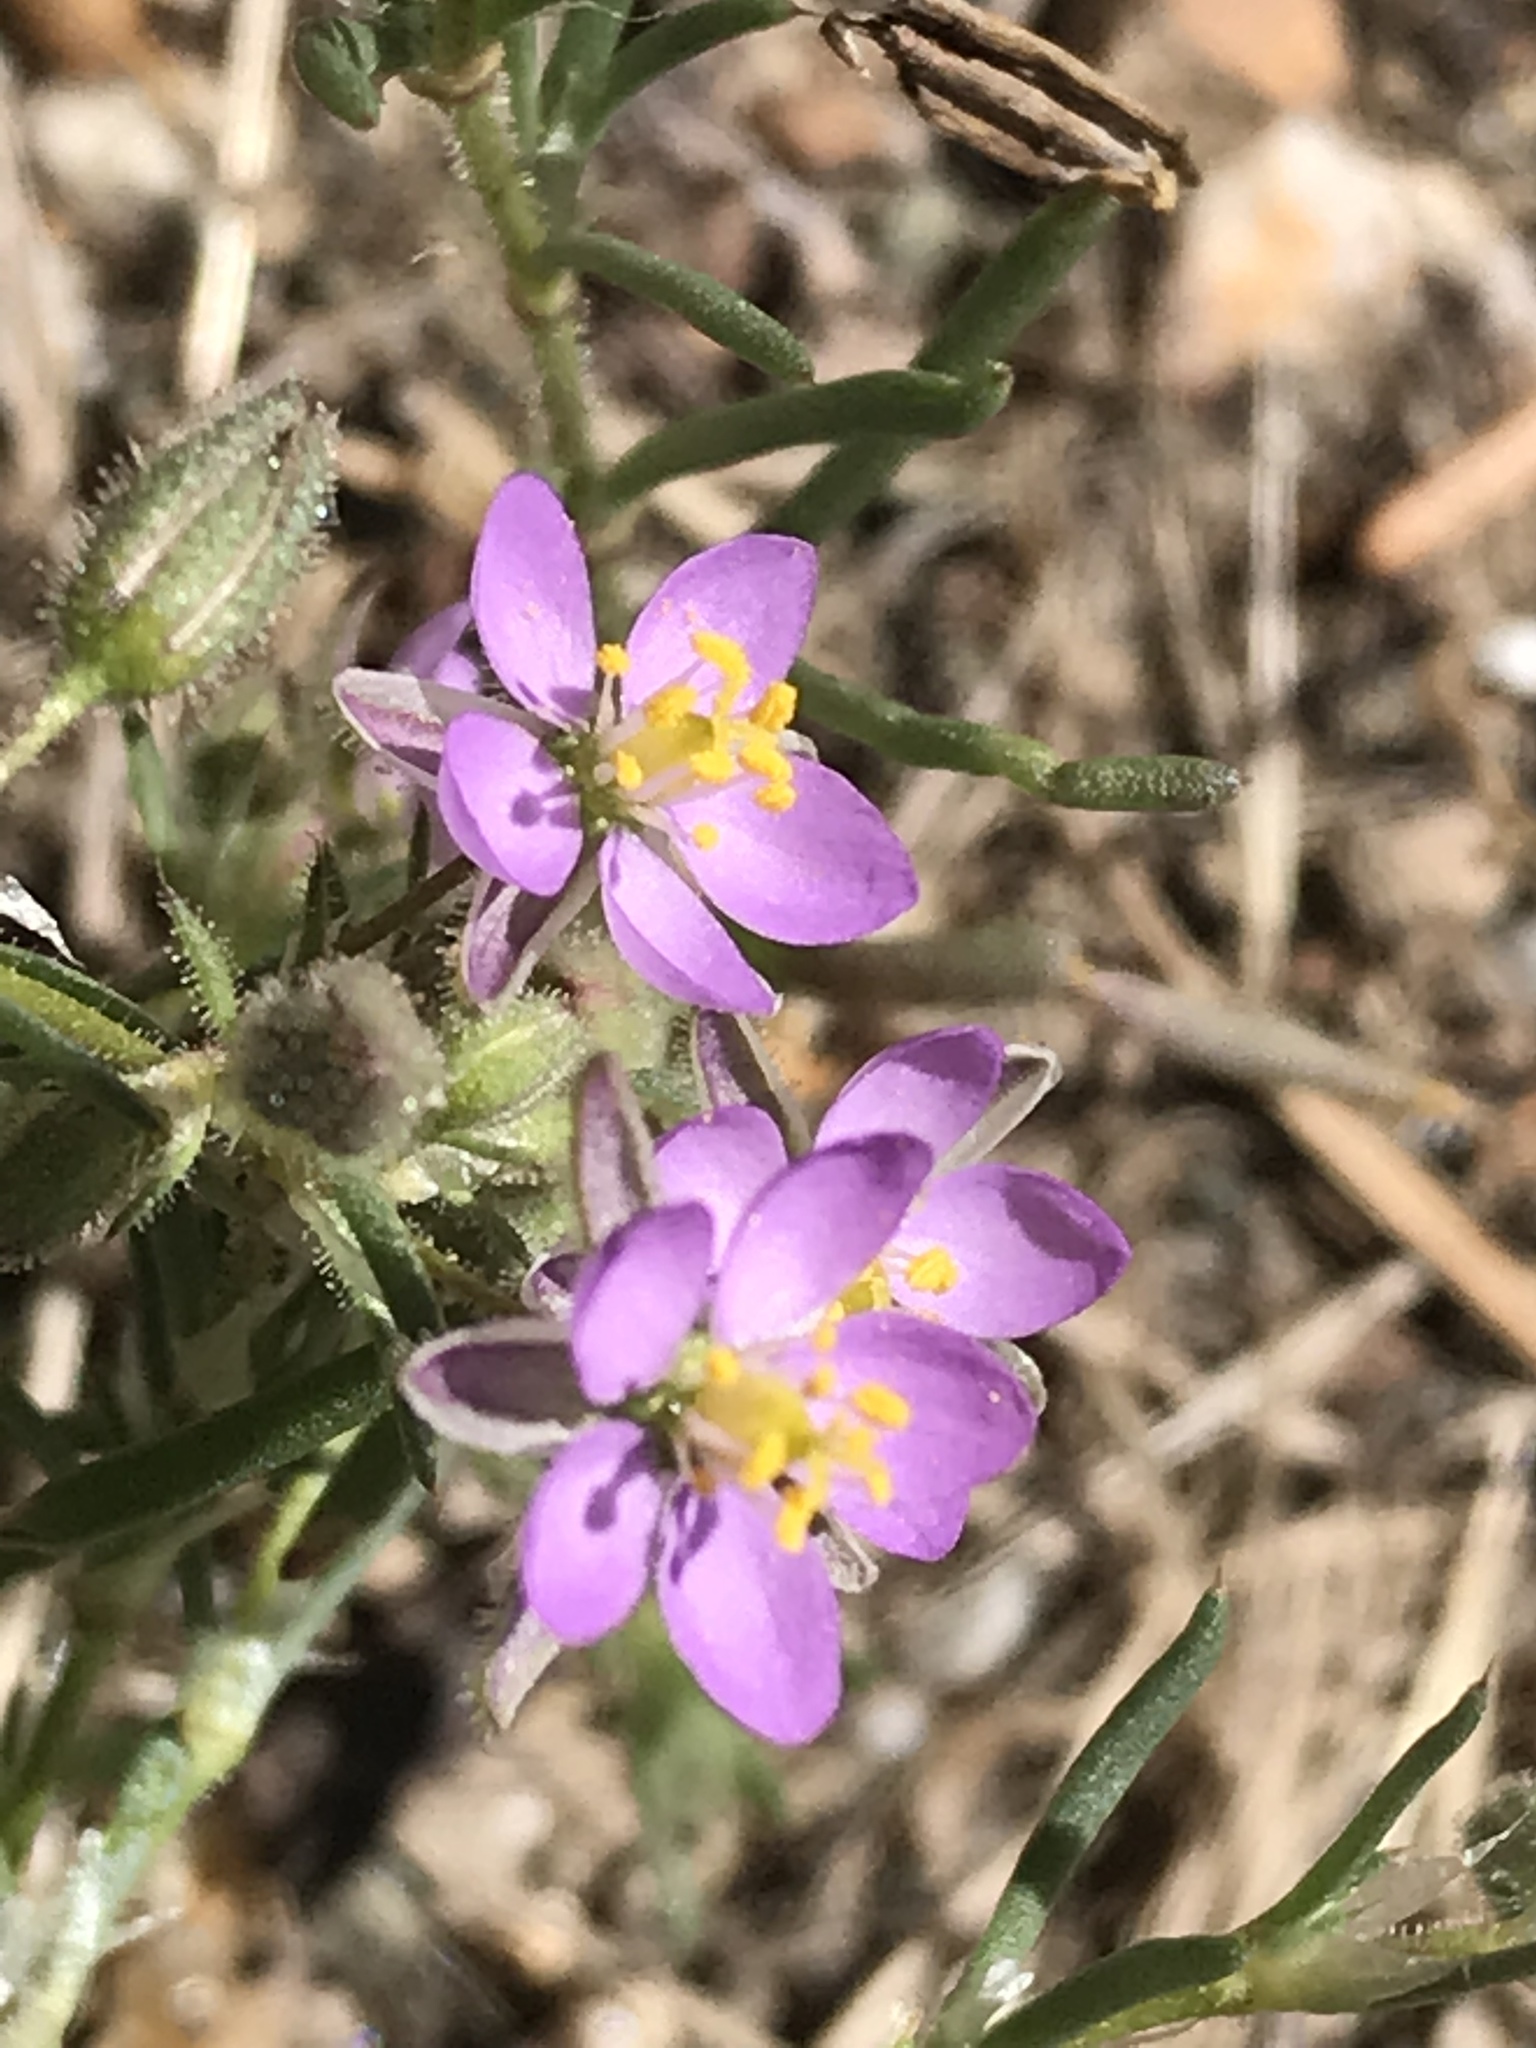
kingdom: Plantae
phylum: Tracheophyta
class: Magnoliopsida
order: Caryophyllales
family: Caryophyllaceae
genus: Spergularia
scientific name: Spergularia rubra
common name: Red sand-spurrey
